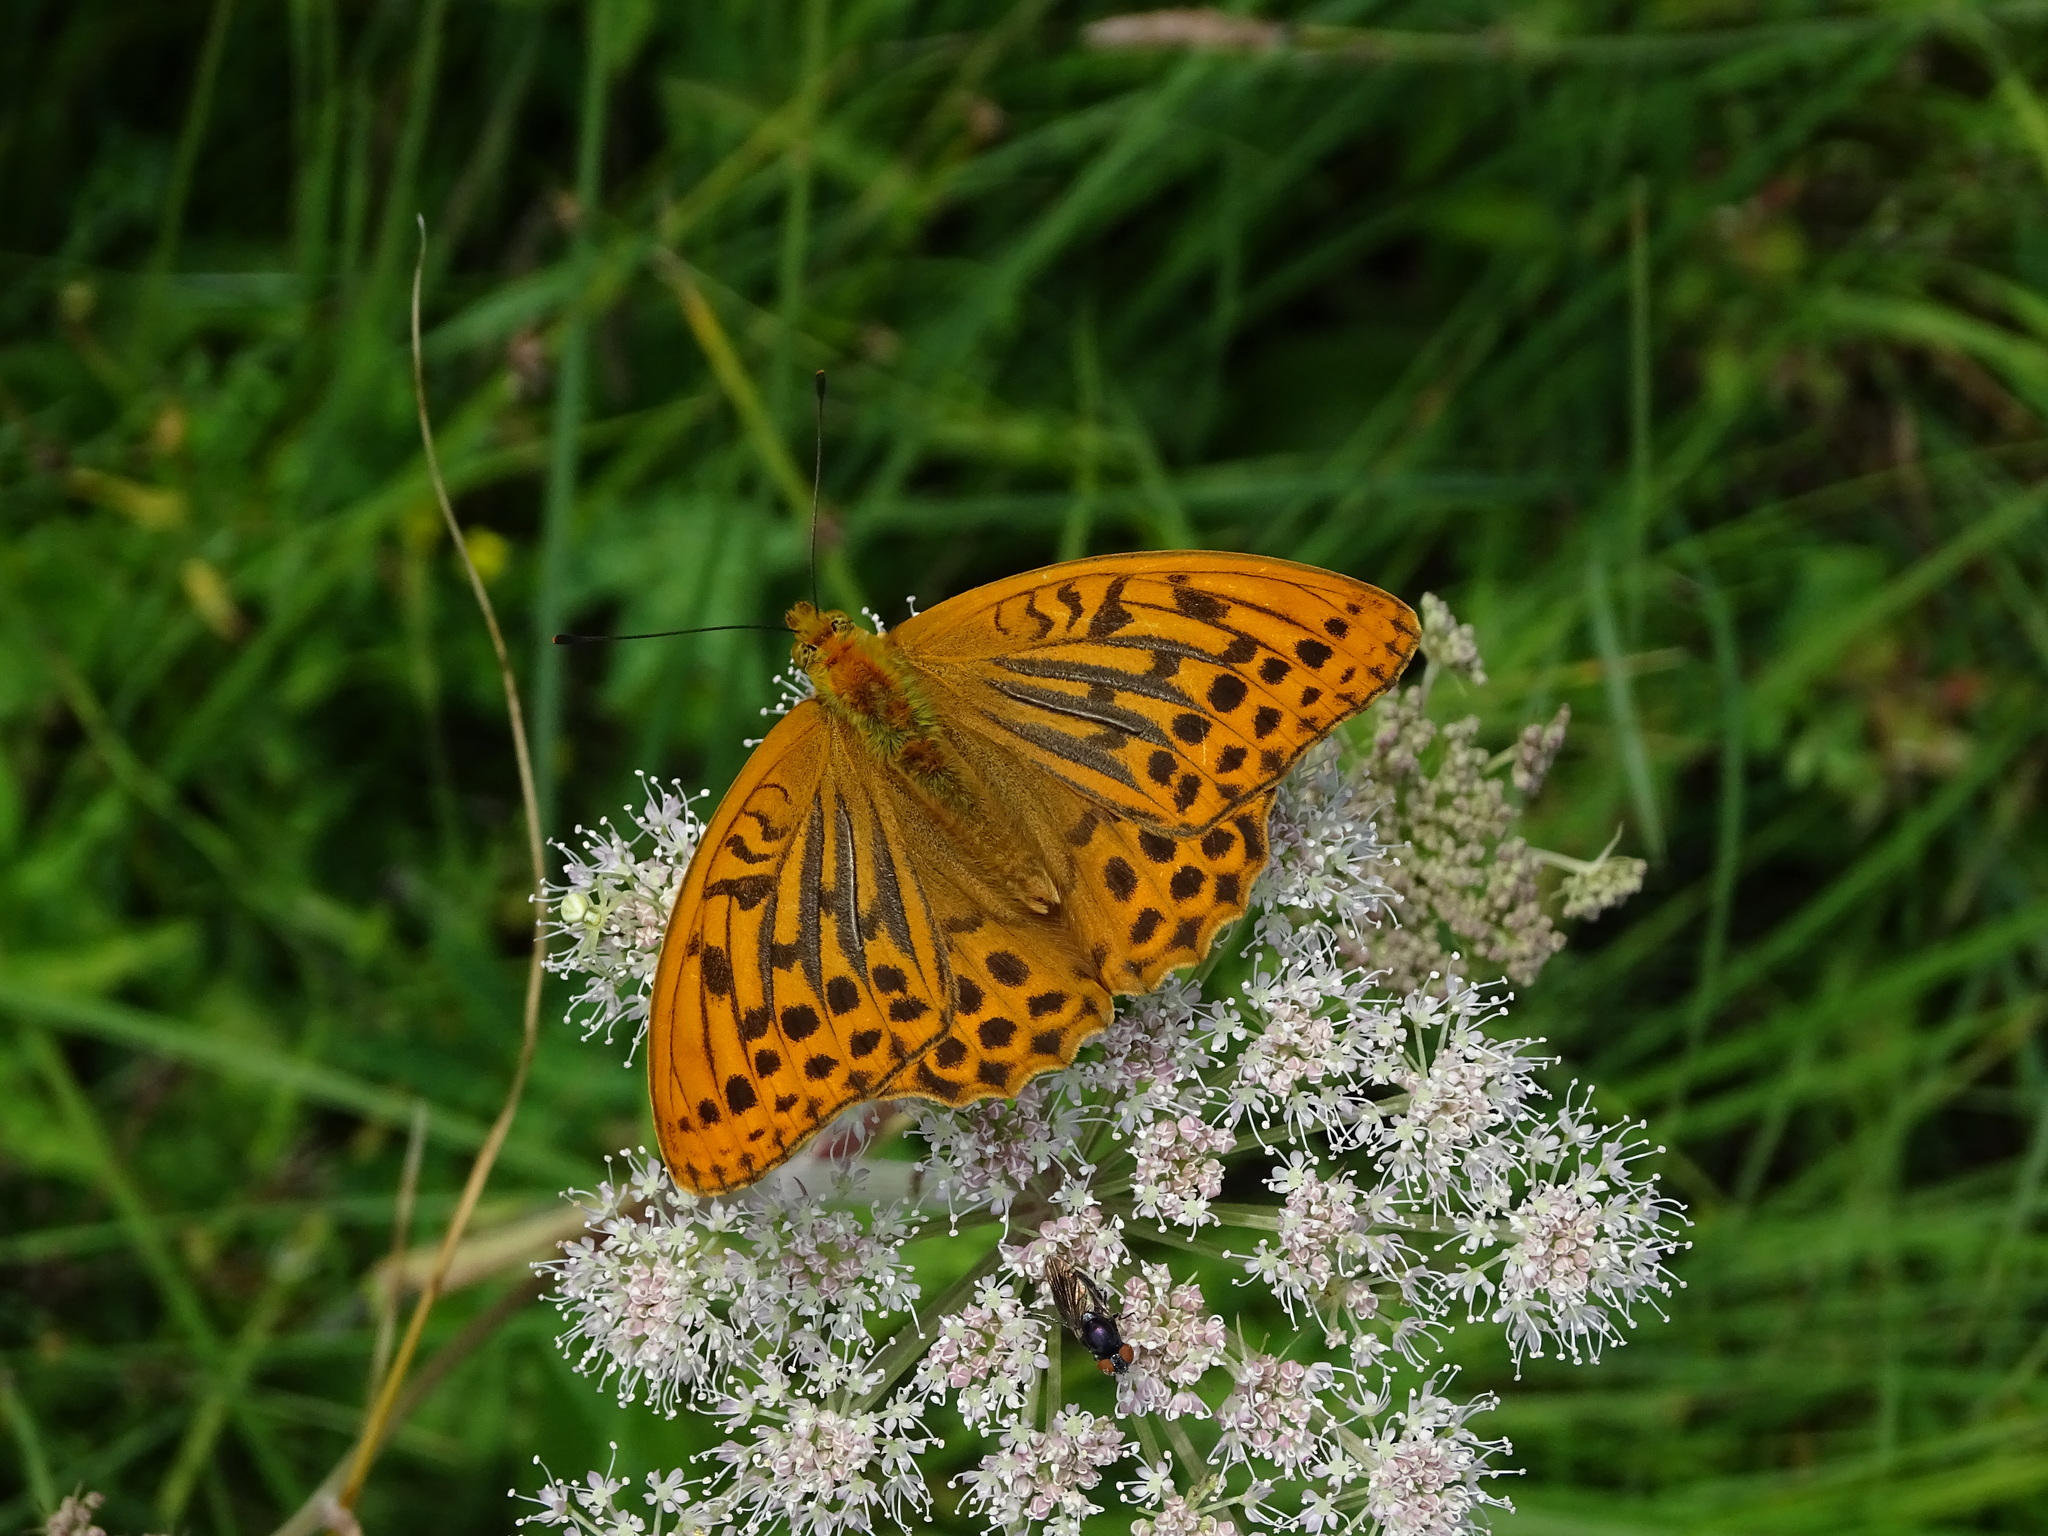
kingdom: Animalia
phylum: Arthropoda
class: Insecta
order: Lepidoptera
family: Nymphalidae
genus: Argynnis
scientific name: Argynnis paphia
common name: Silver-washed fritillary
